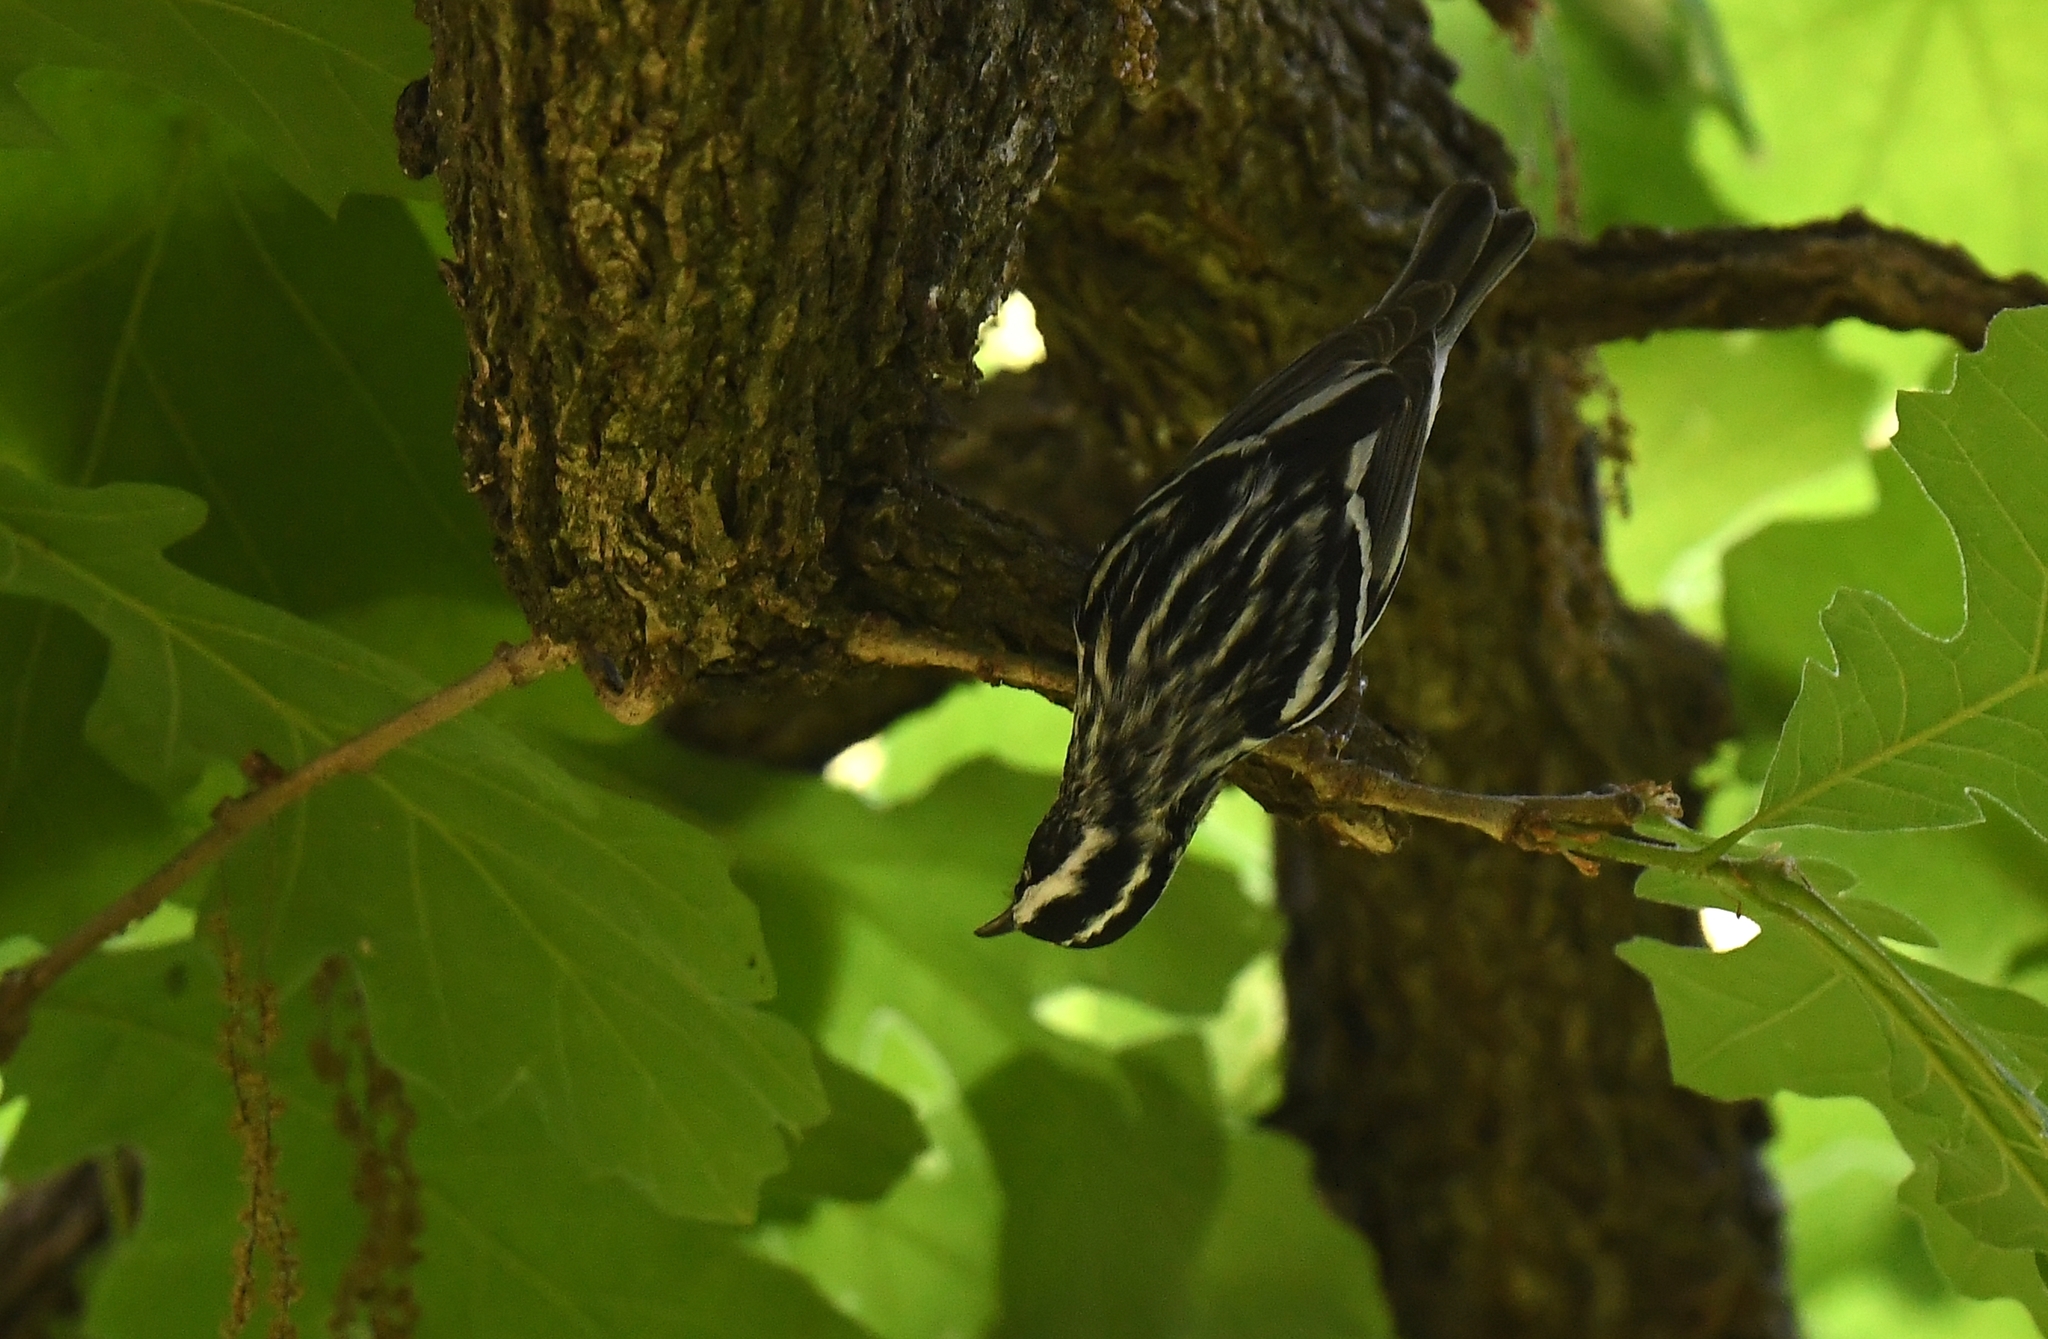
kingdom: Animalia
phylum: Chordata
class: Aves
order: Passeriformes
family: Parulidae
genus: Mniotilta
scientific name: Mniotilta varia
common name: Black-and-white warbler
